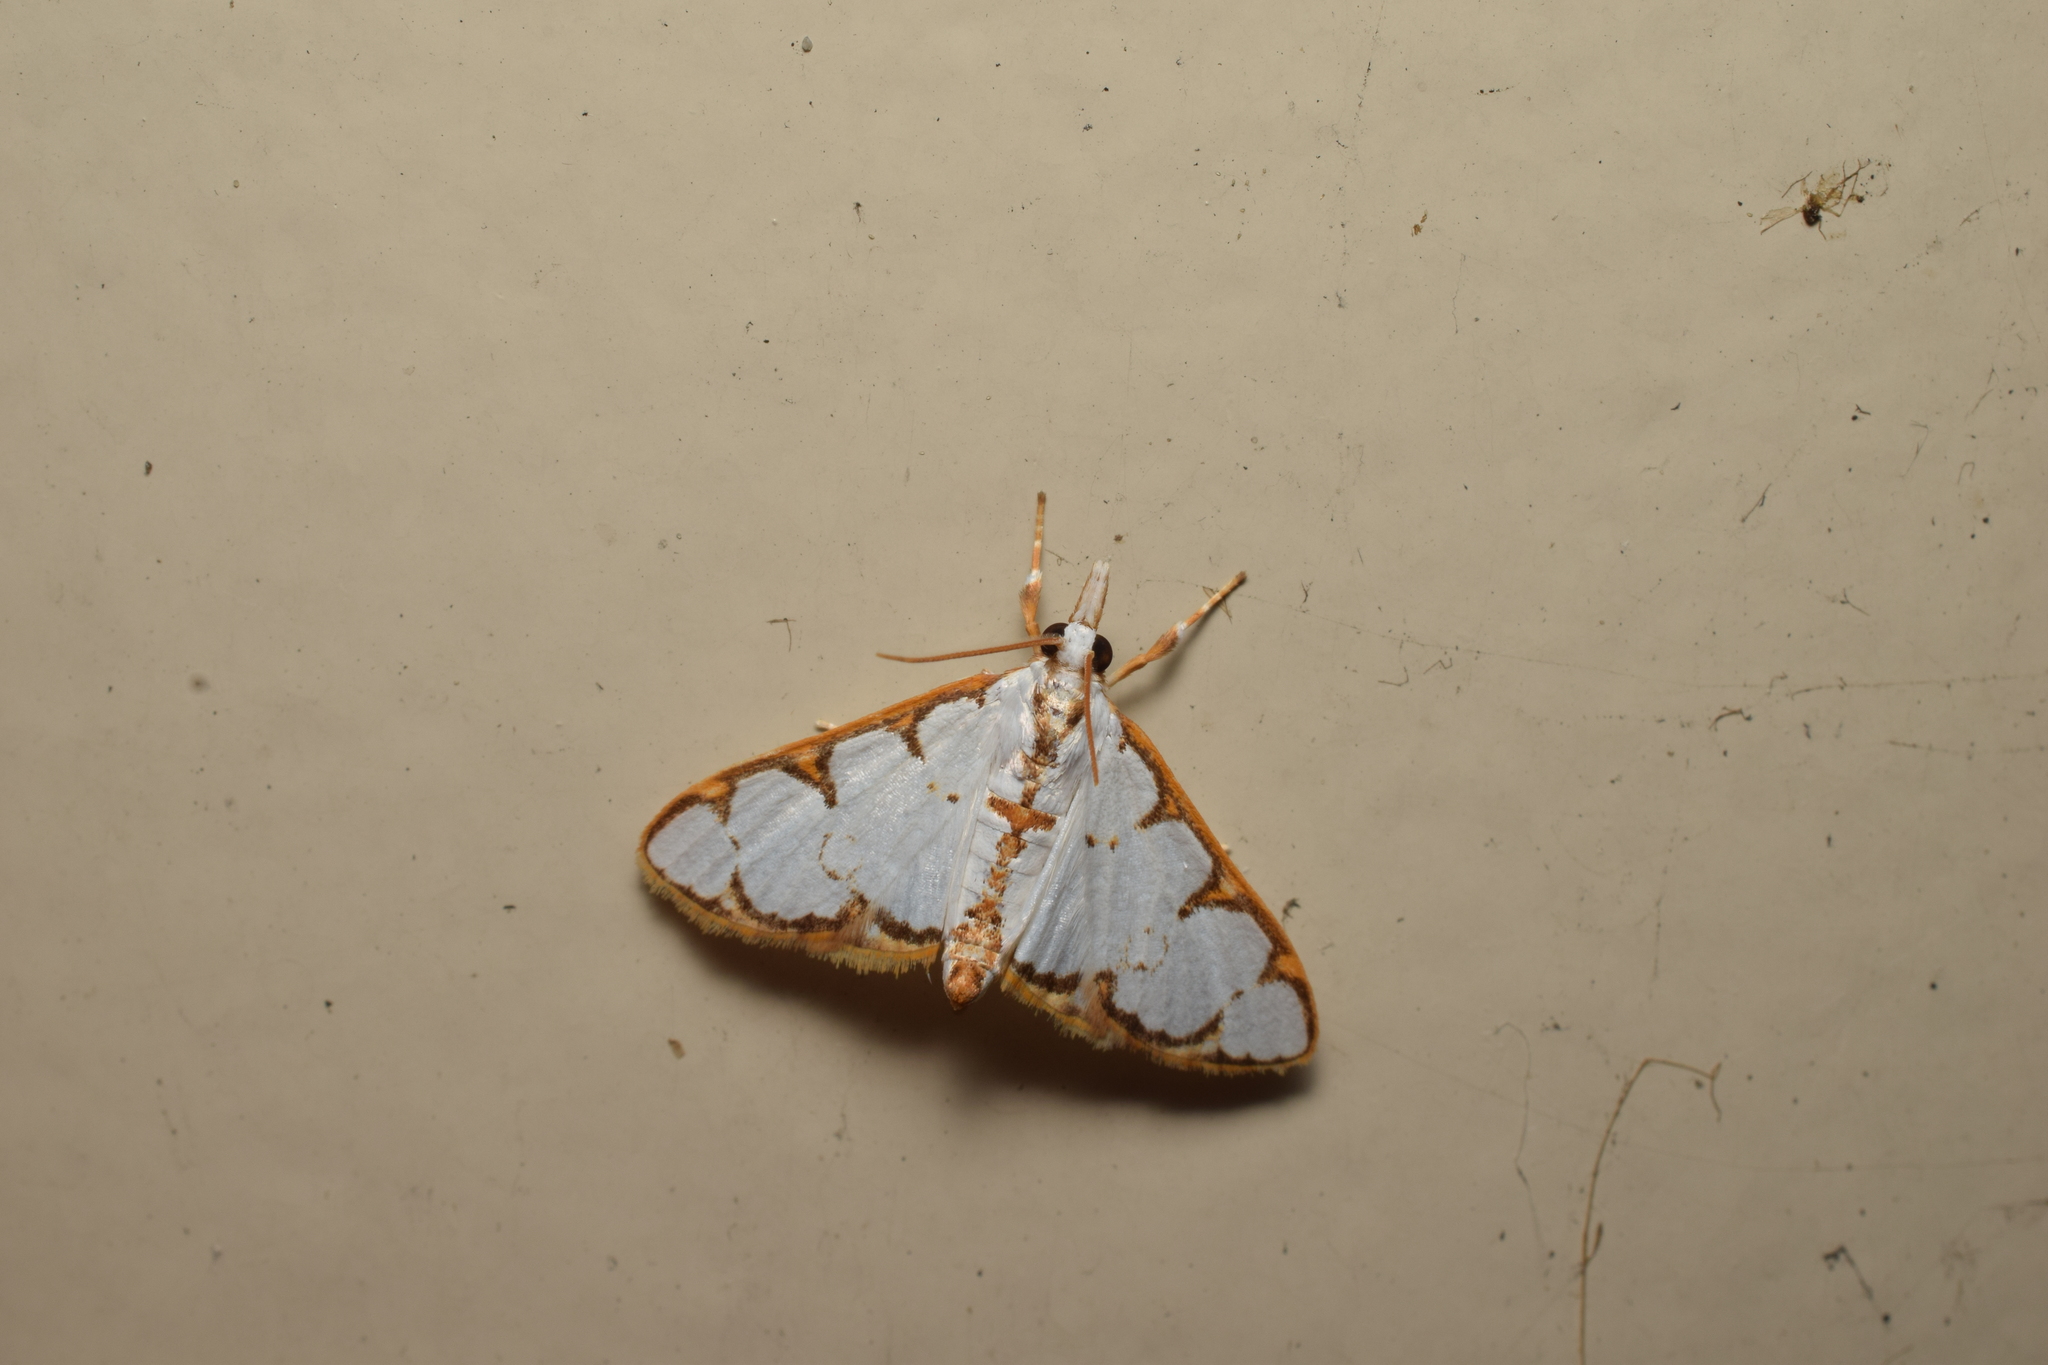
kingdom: Animalia
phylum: Arthropoda
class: Insecta
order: Lepidoptera
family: Crambidae
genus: Cirrhochrista
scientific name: Cirrhochrista brizoalis
